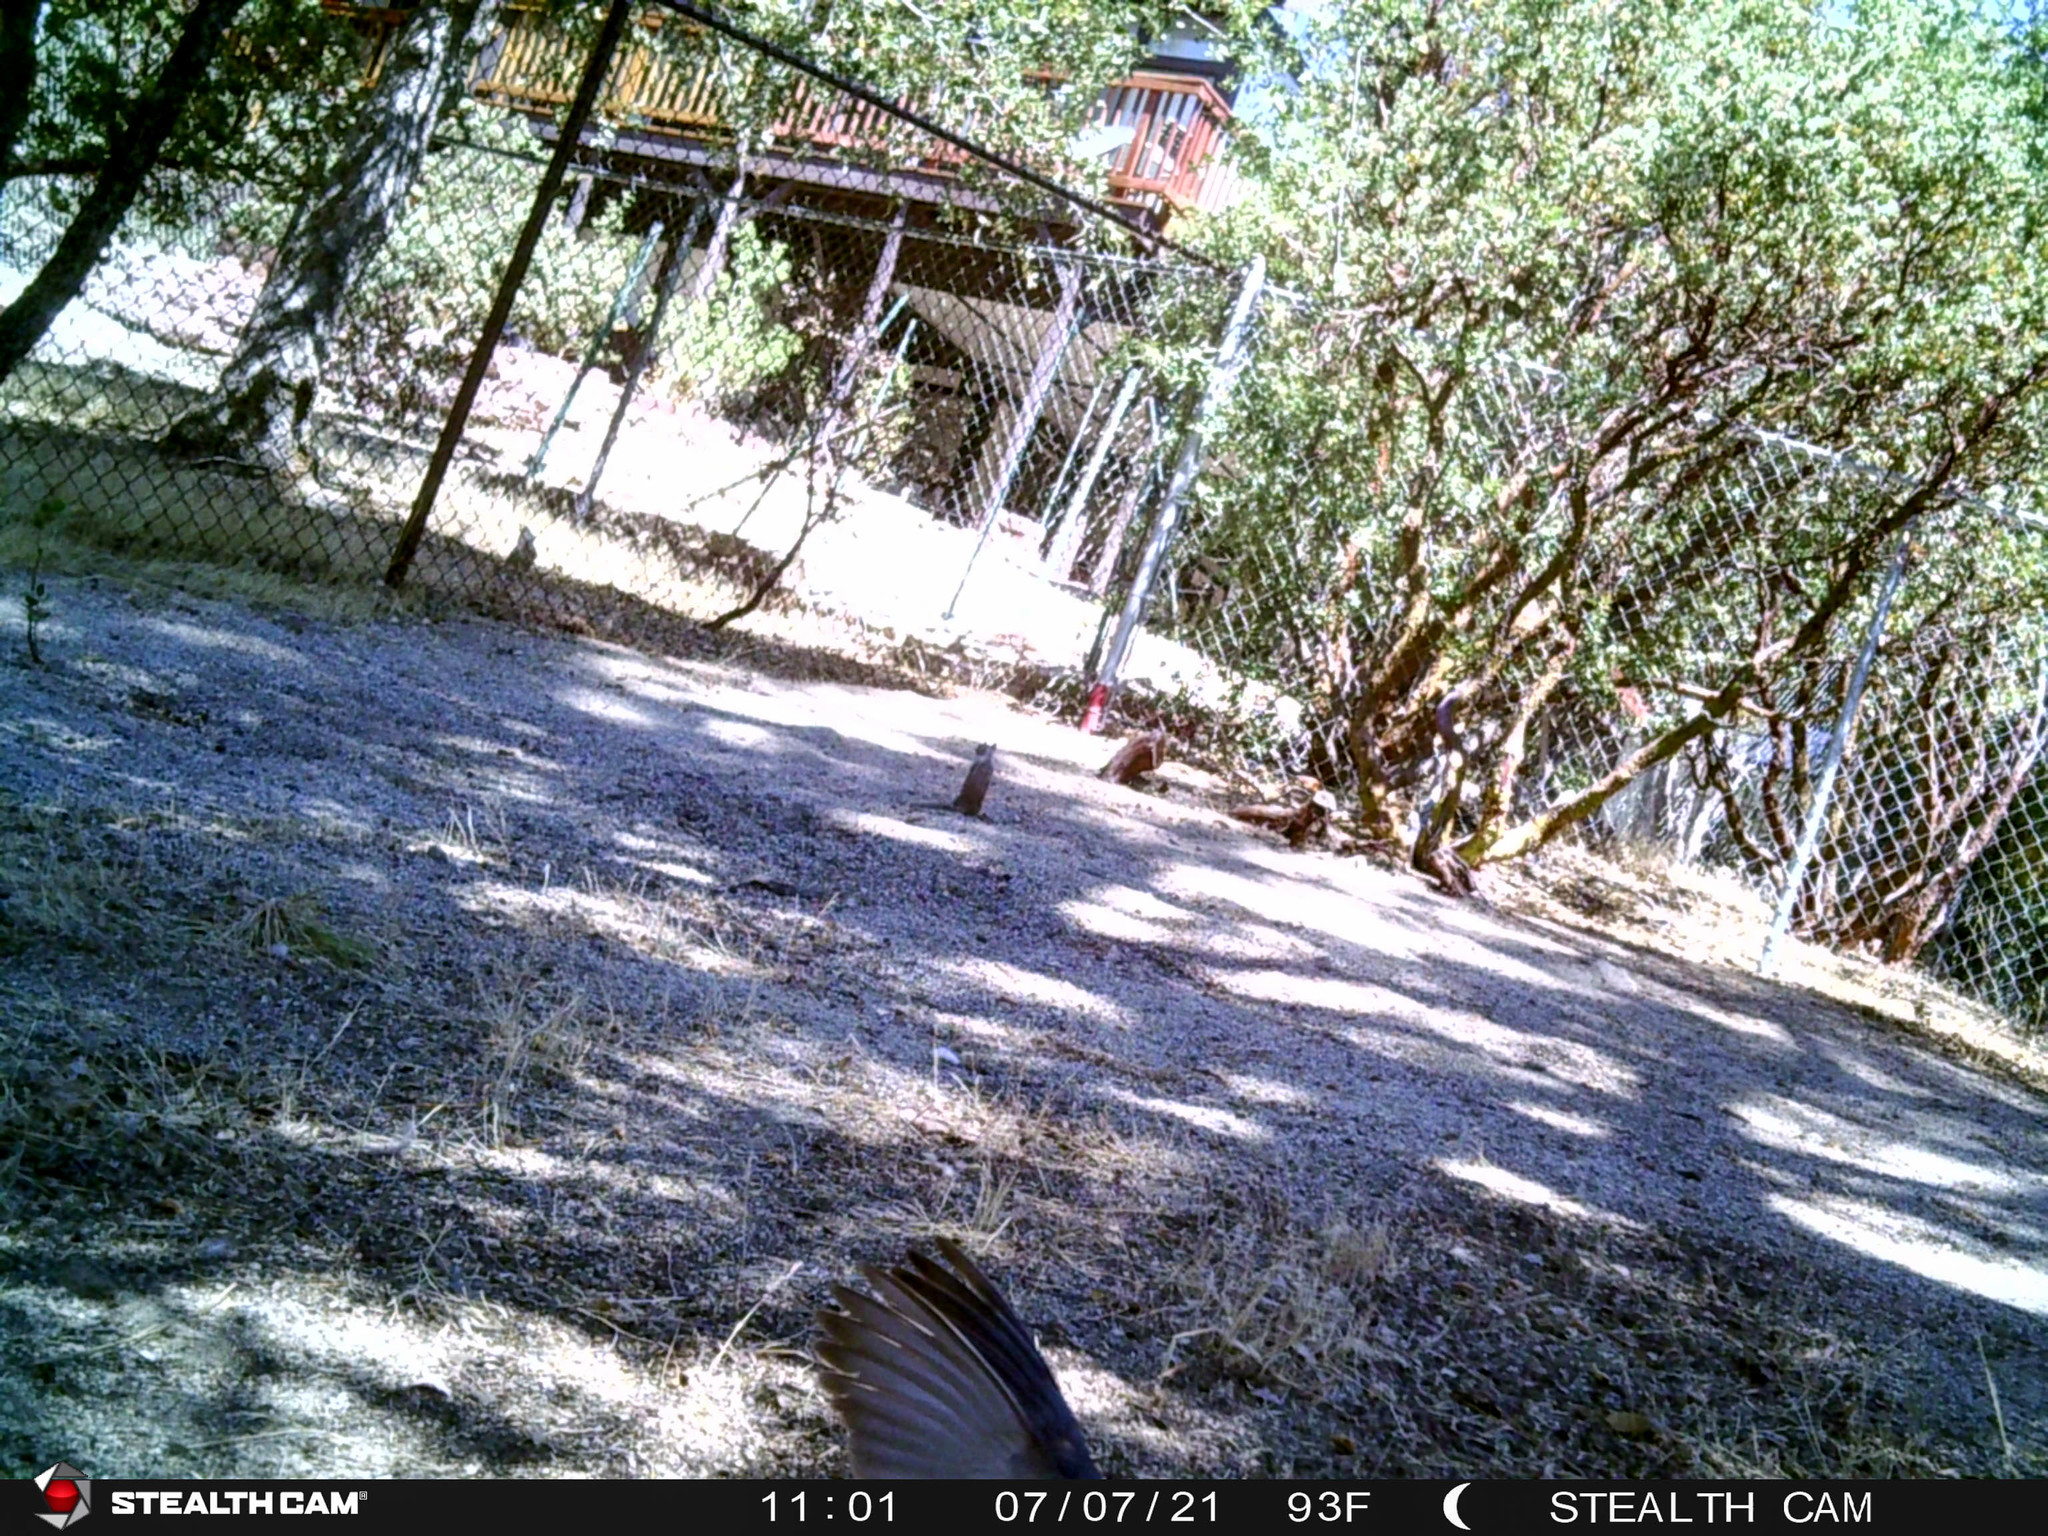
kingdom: Animalia
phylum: Chordata
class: Mammalia
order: Rodentia
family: Sciuridae
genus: Otospermophilus
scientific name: Otospermophilus beecheyi
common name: California ground squirrel
